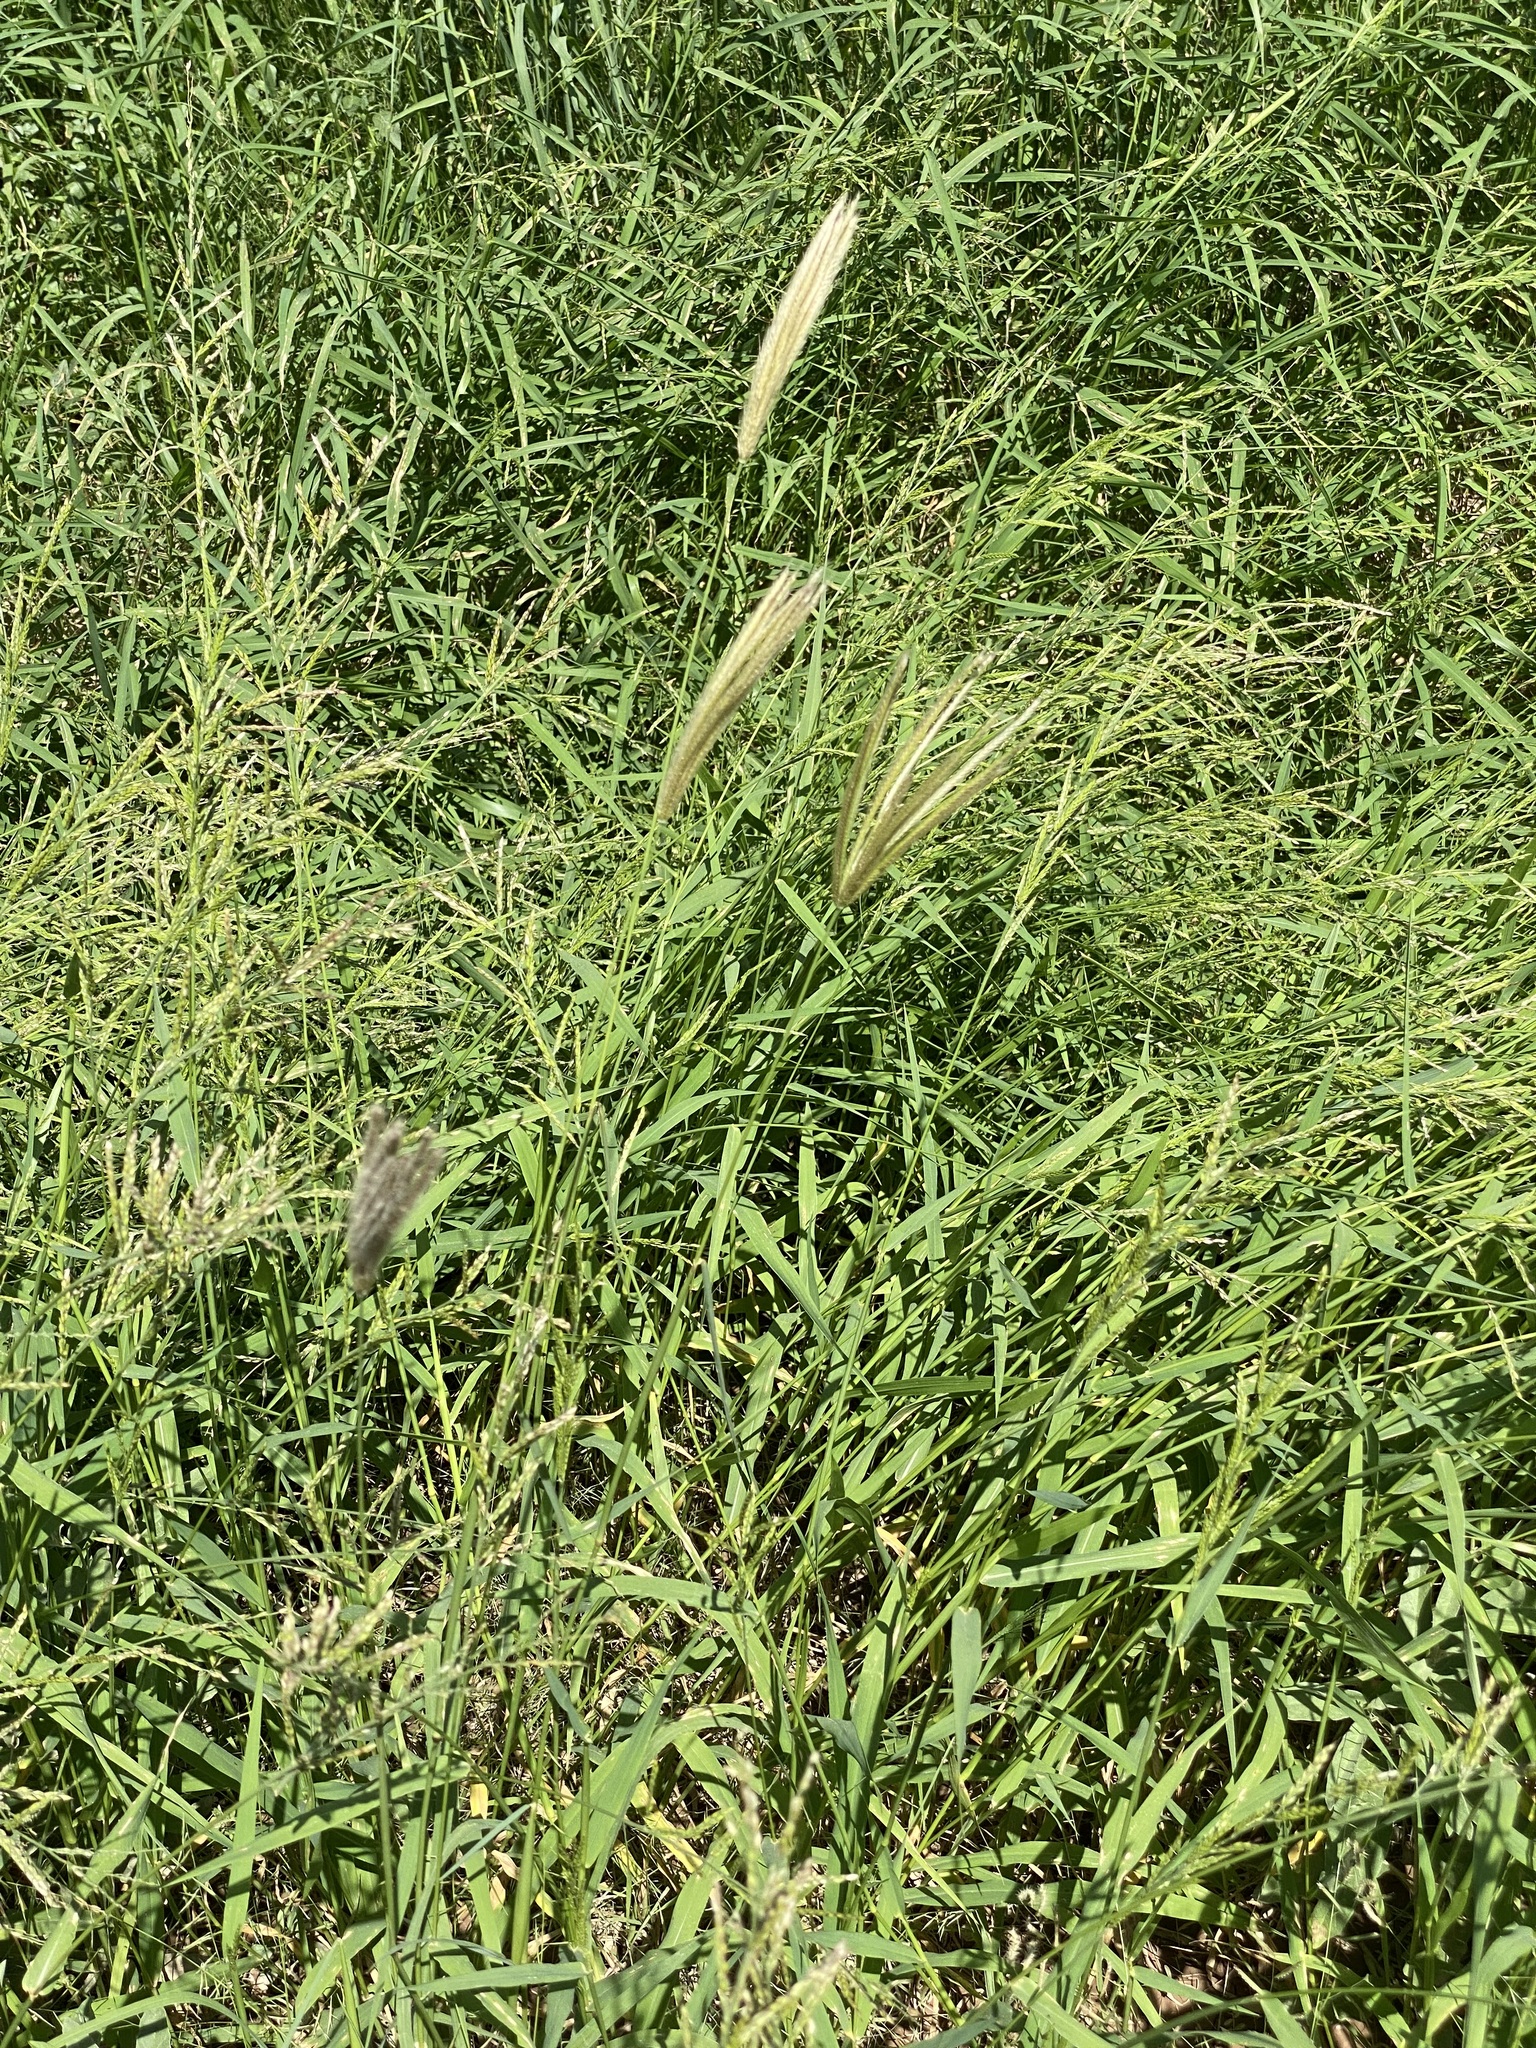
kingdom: Plantae
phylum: Tracheophyta
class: Liliopsida
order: Poales
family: Poaceae
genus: Chloris
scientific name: Chloris virgata
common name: Feathery rhodes-grass
